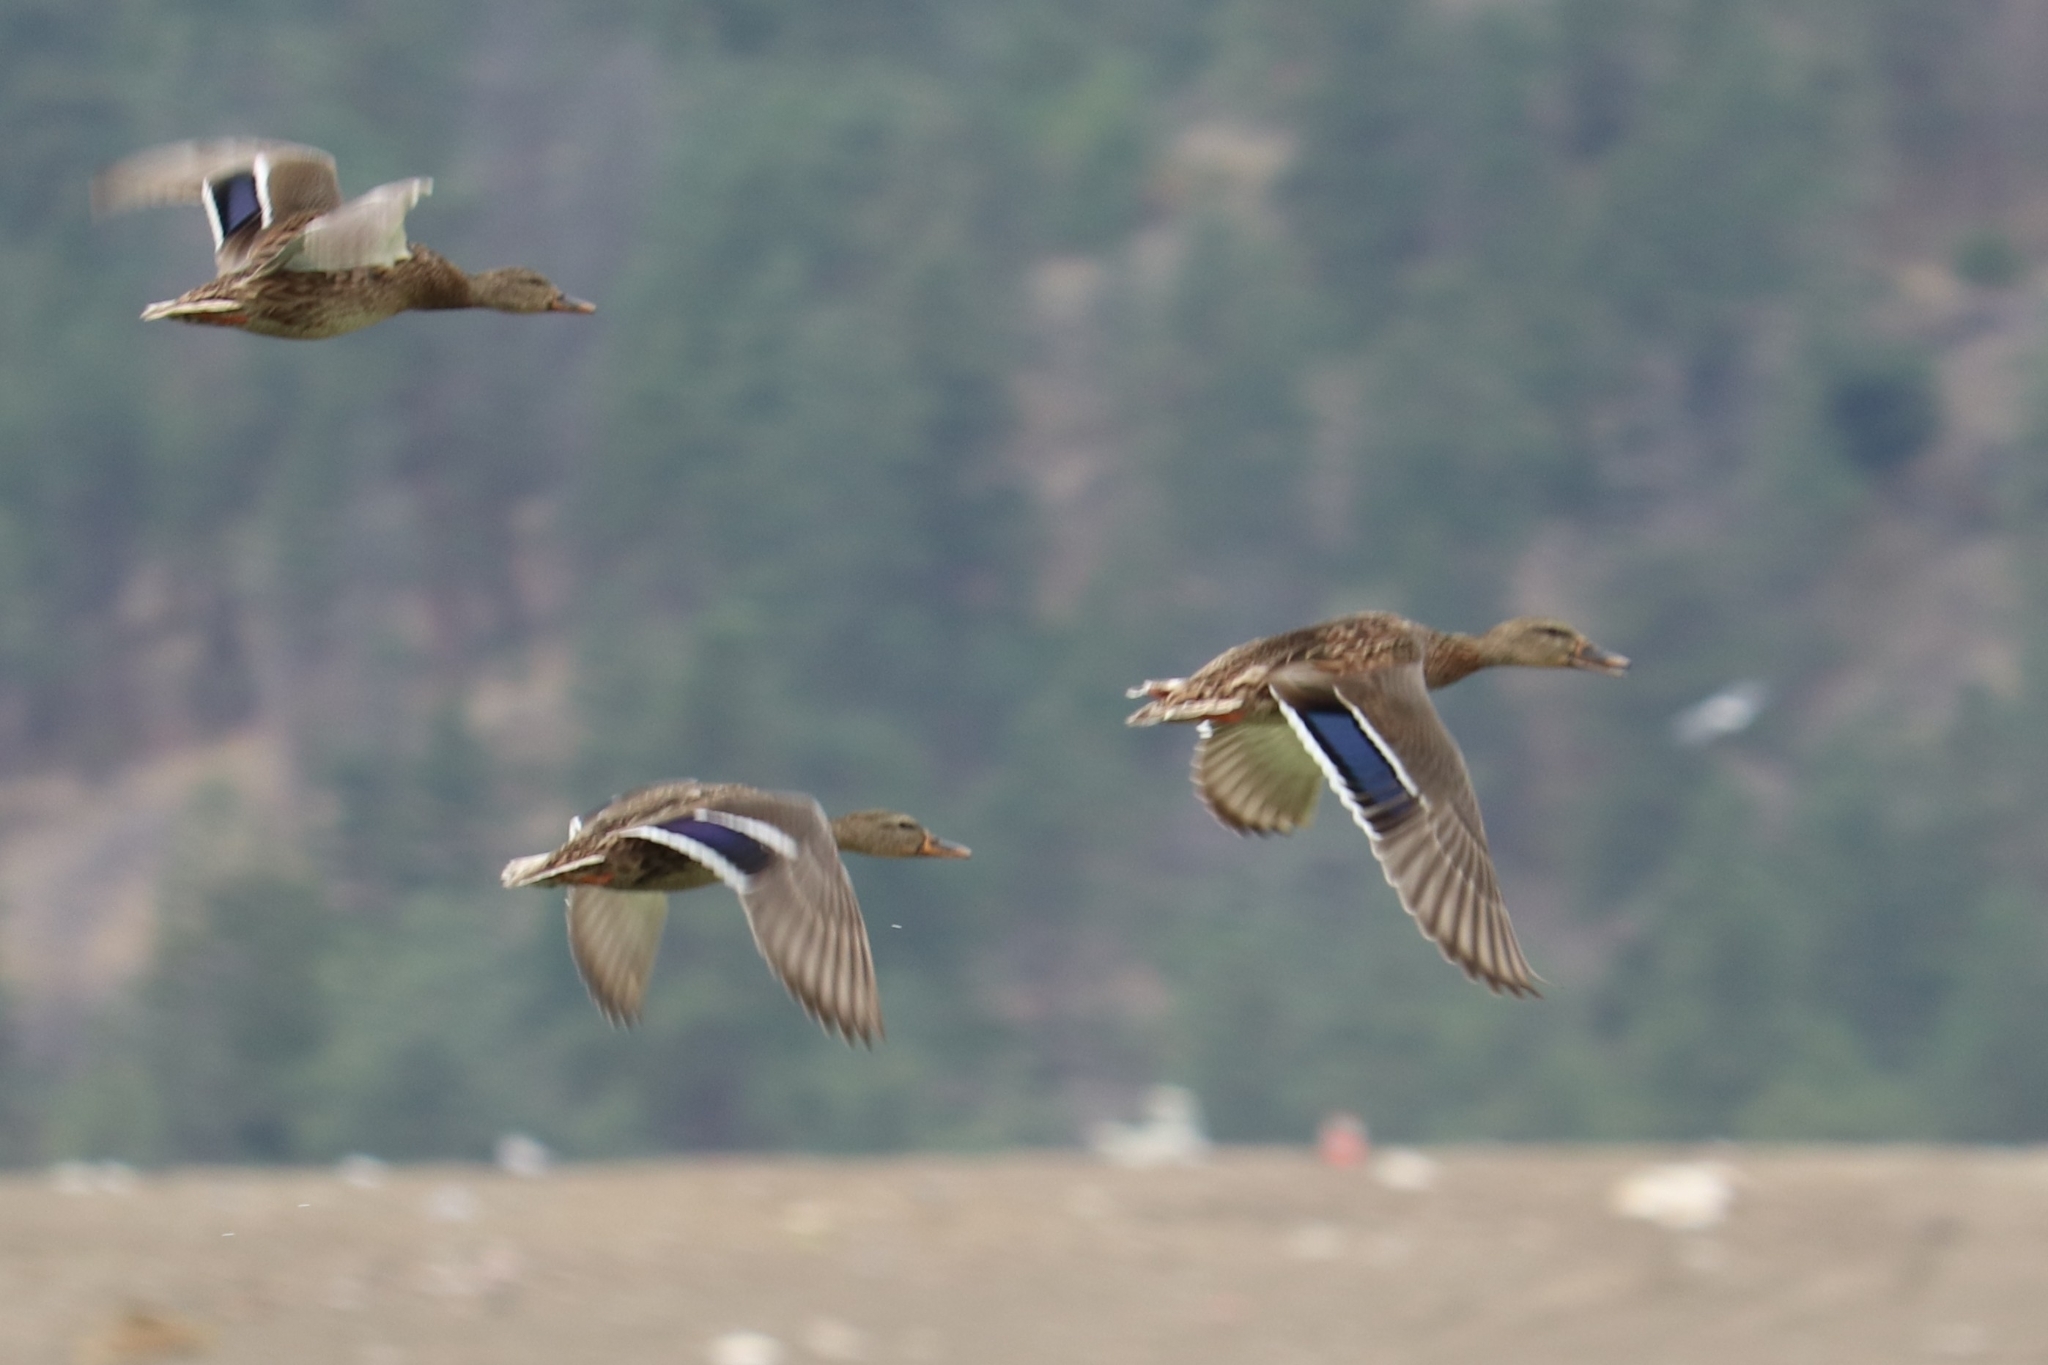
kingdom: Animalia
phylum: Chordata
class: Aves
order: Anseriformes
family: Anatidae
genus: Anas
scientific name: Anas platyrhynchos
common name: Mallard
